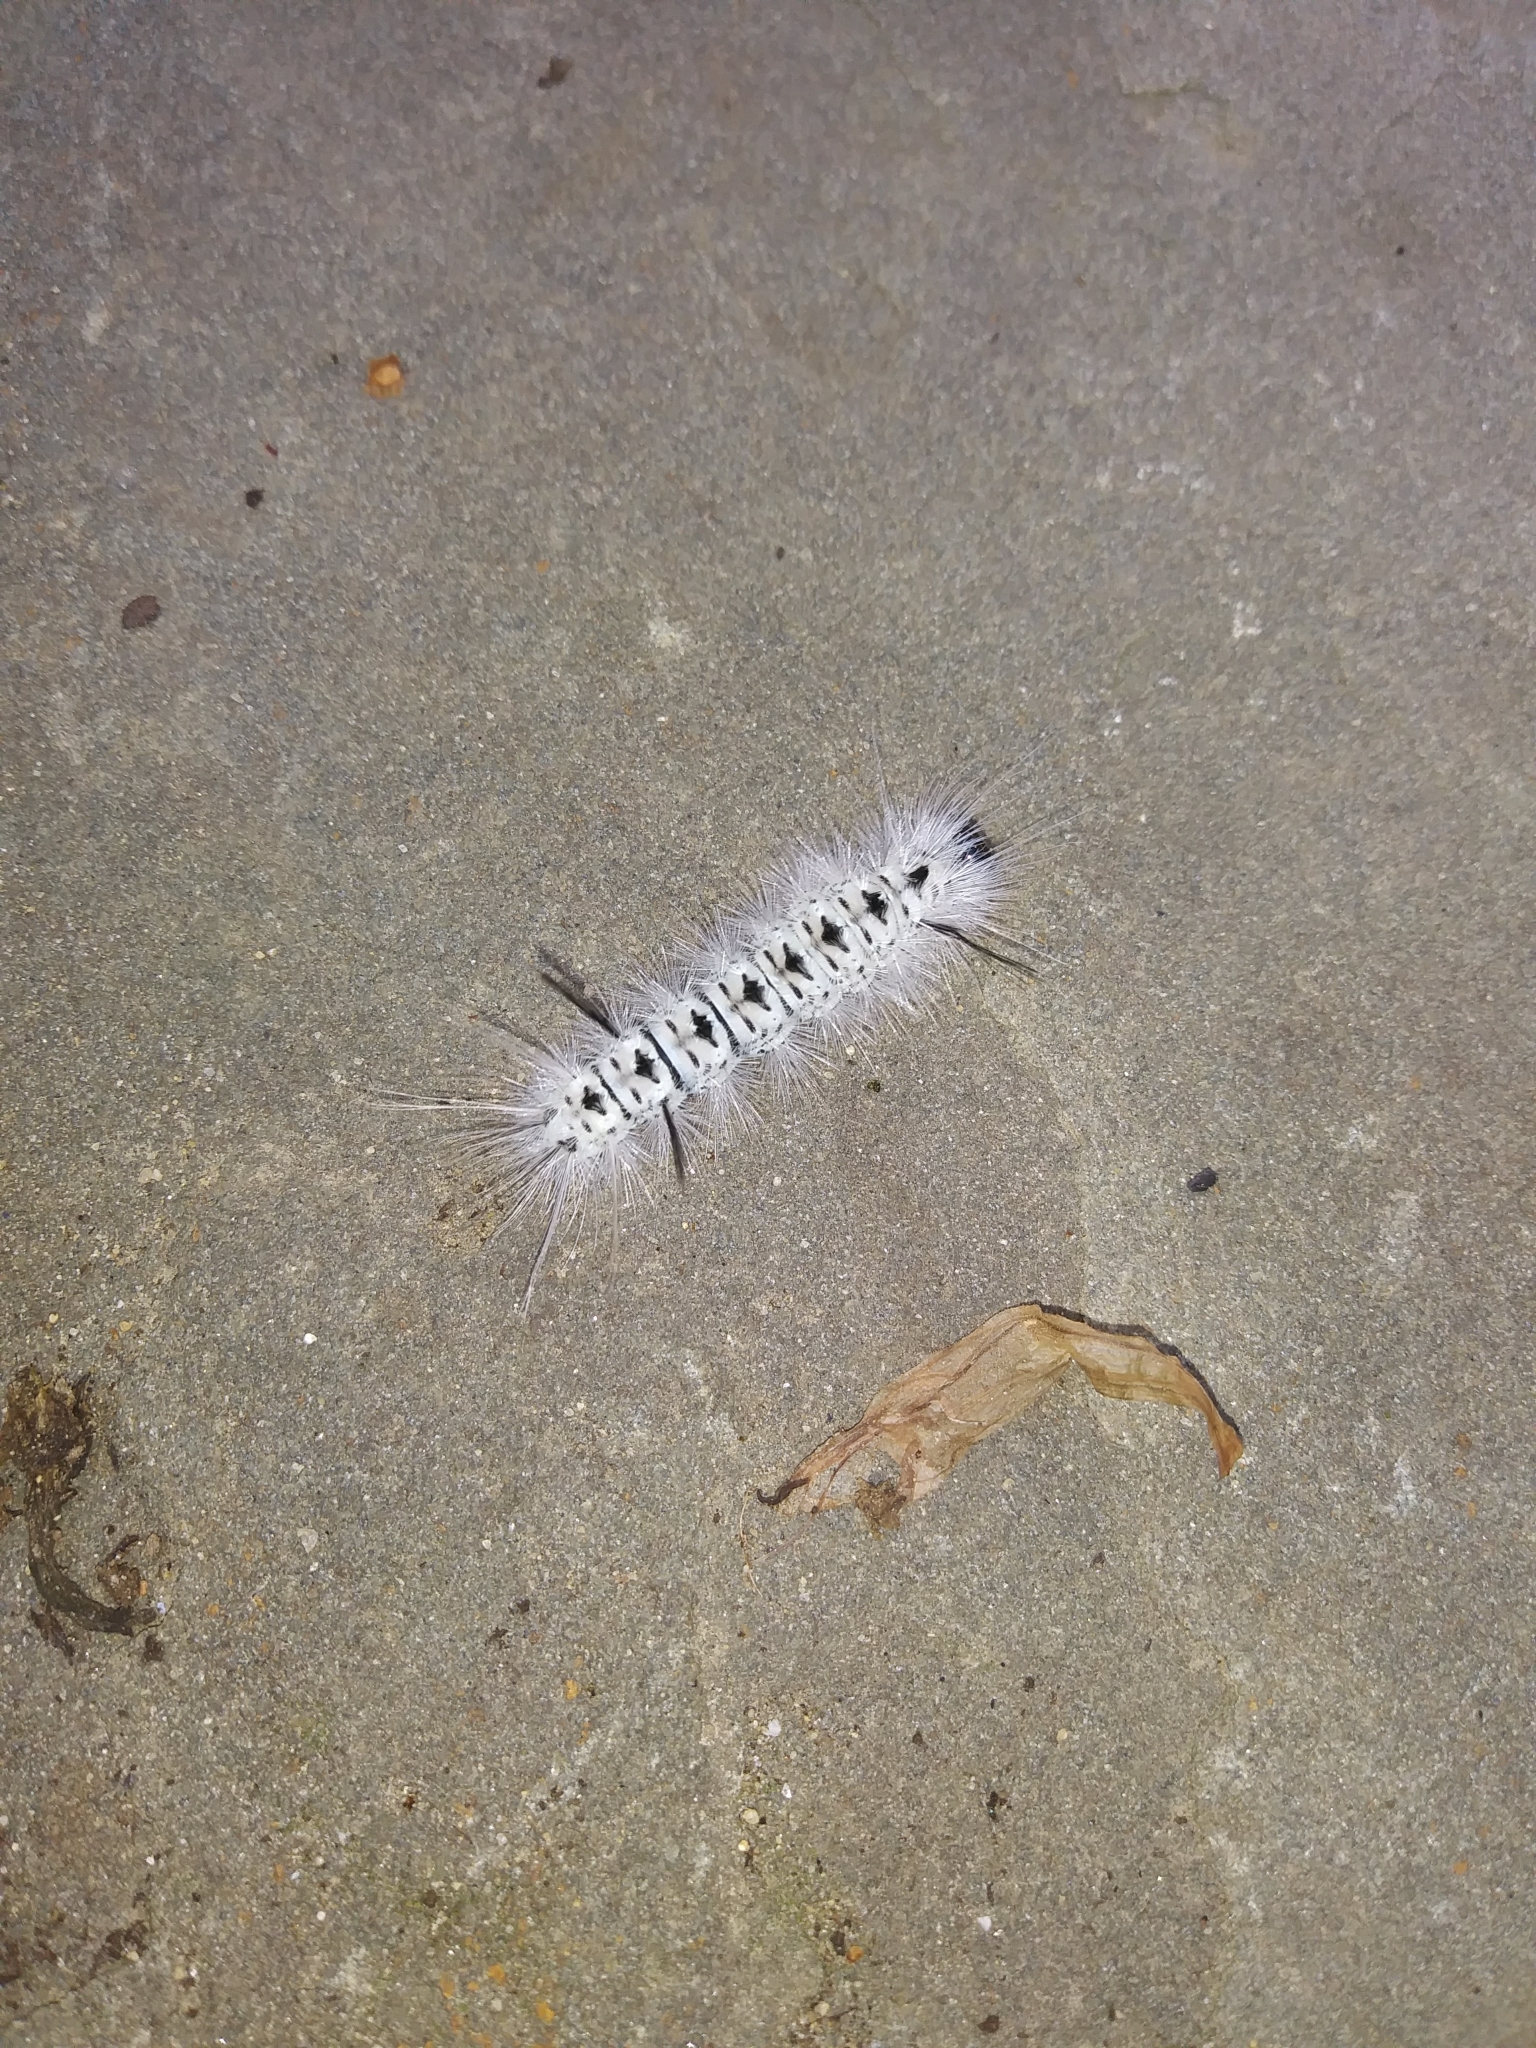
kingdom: Animalia
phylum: Arthropoda
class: Insecta
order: Lepidoptera
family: Erebidae
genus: Lophocampa
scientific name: Lophocampa caryae
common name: Hickory tussock moth
